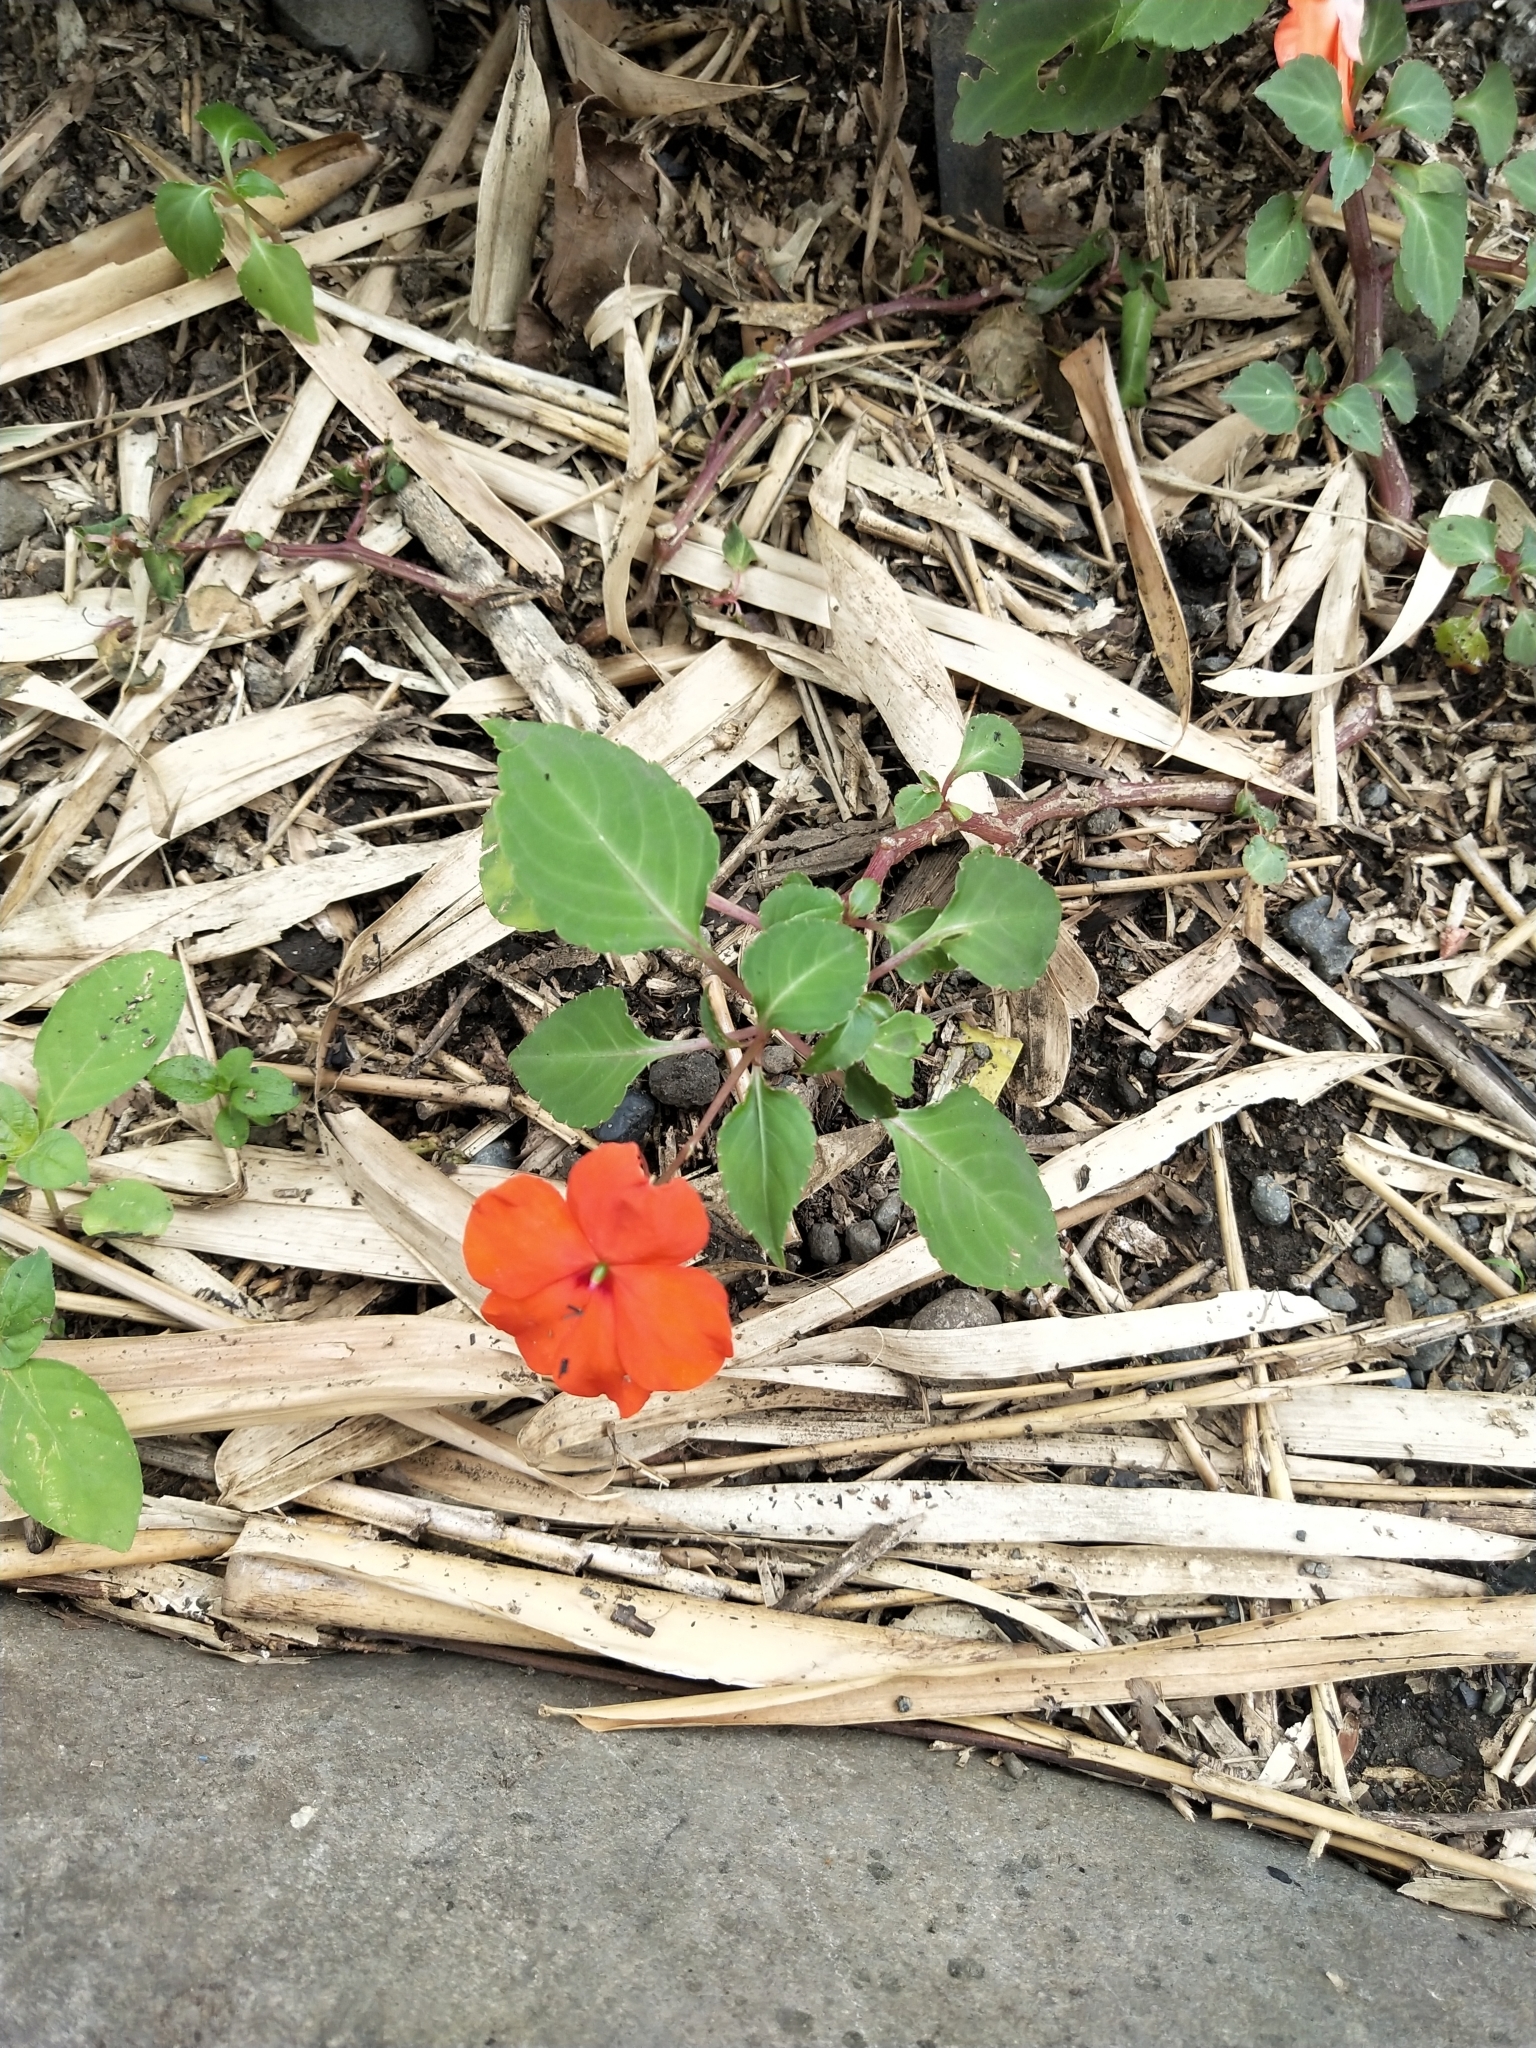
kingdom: Plantae
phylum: Tracheophyta
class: Magnoliopsida
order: Ericales
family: Balsaminaceae
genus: Impatiens
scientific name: Impatiens walleriana
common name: Buzzy lizzy
